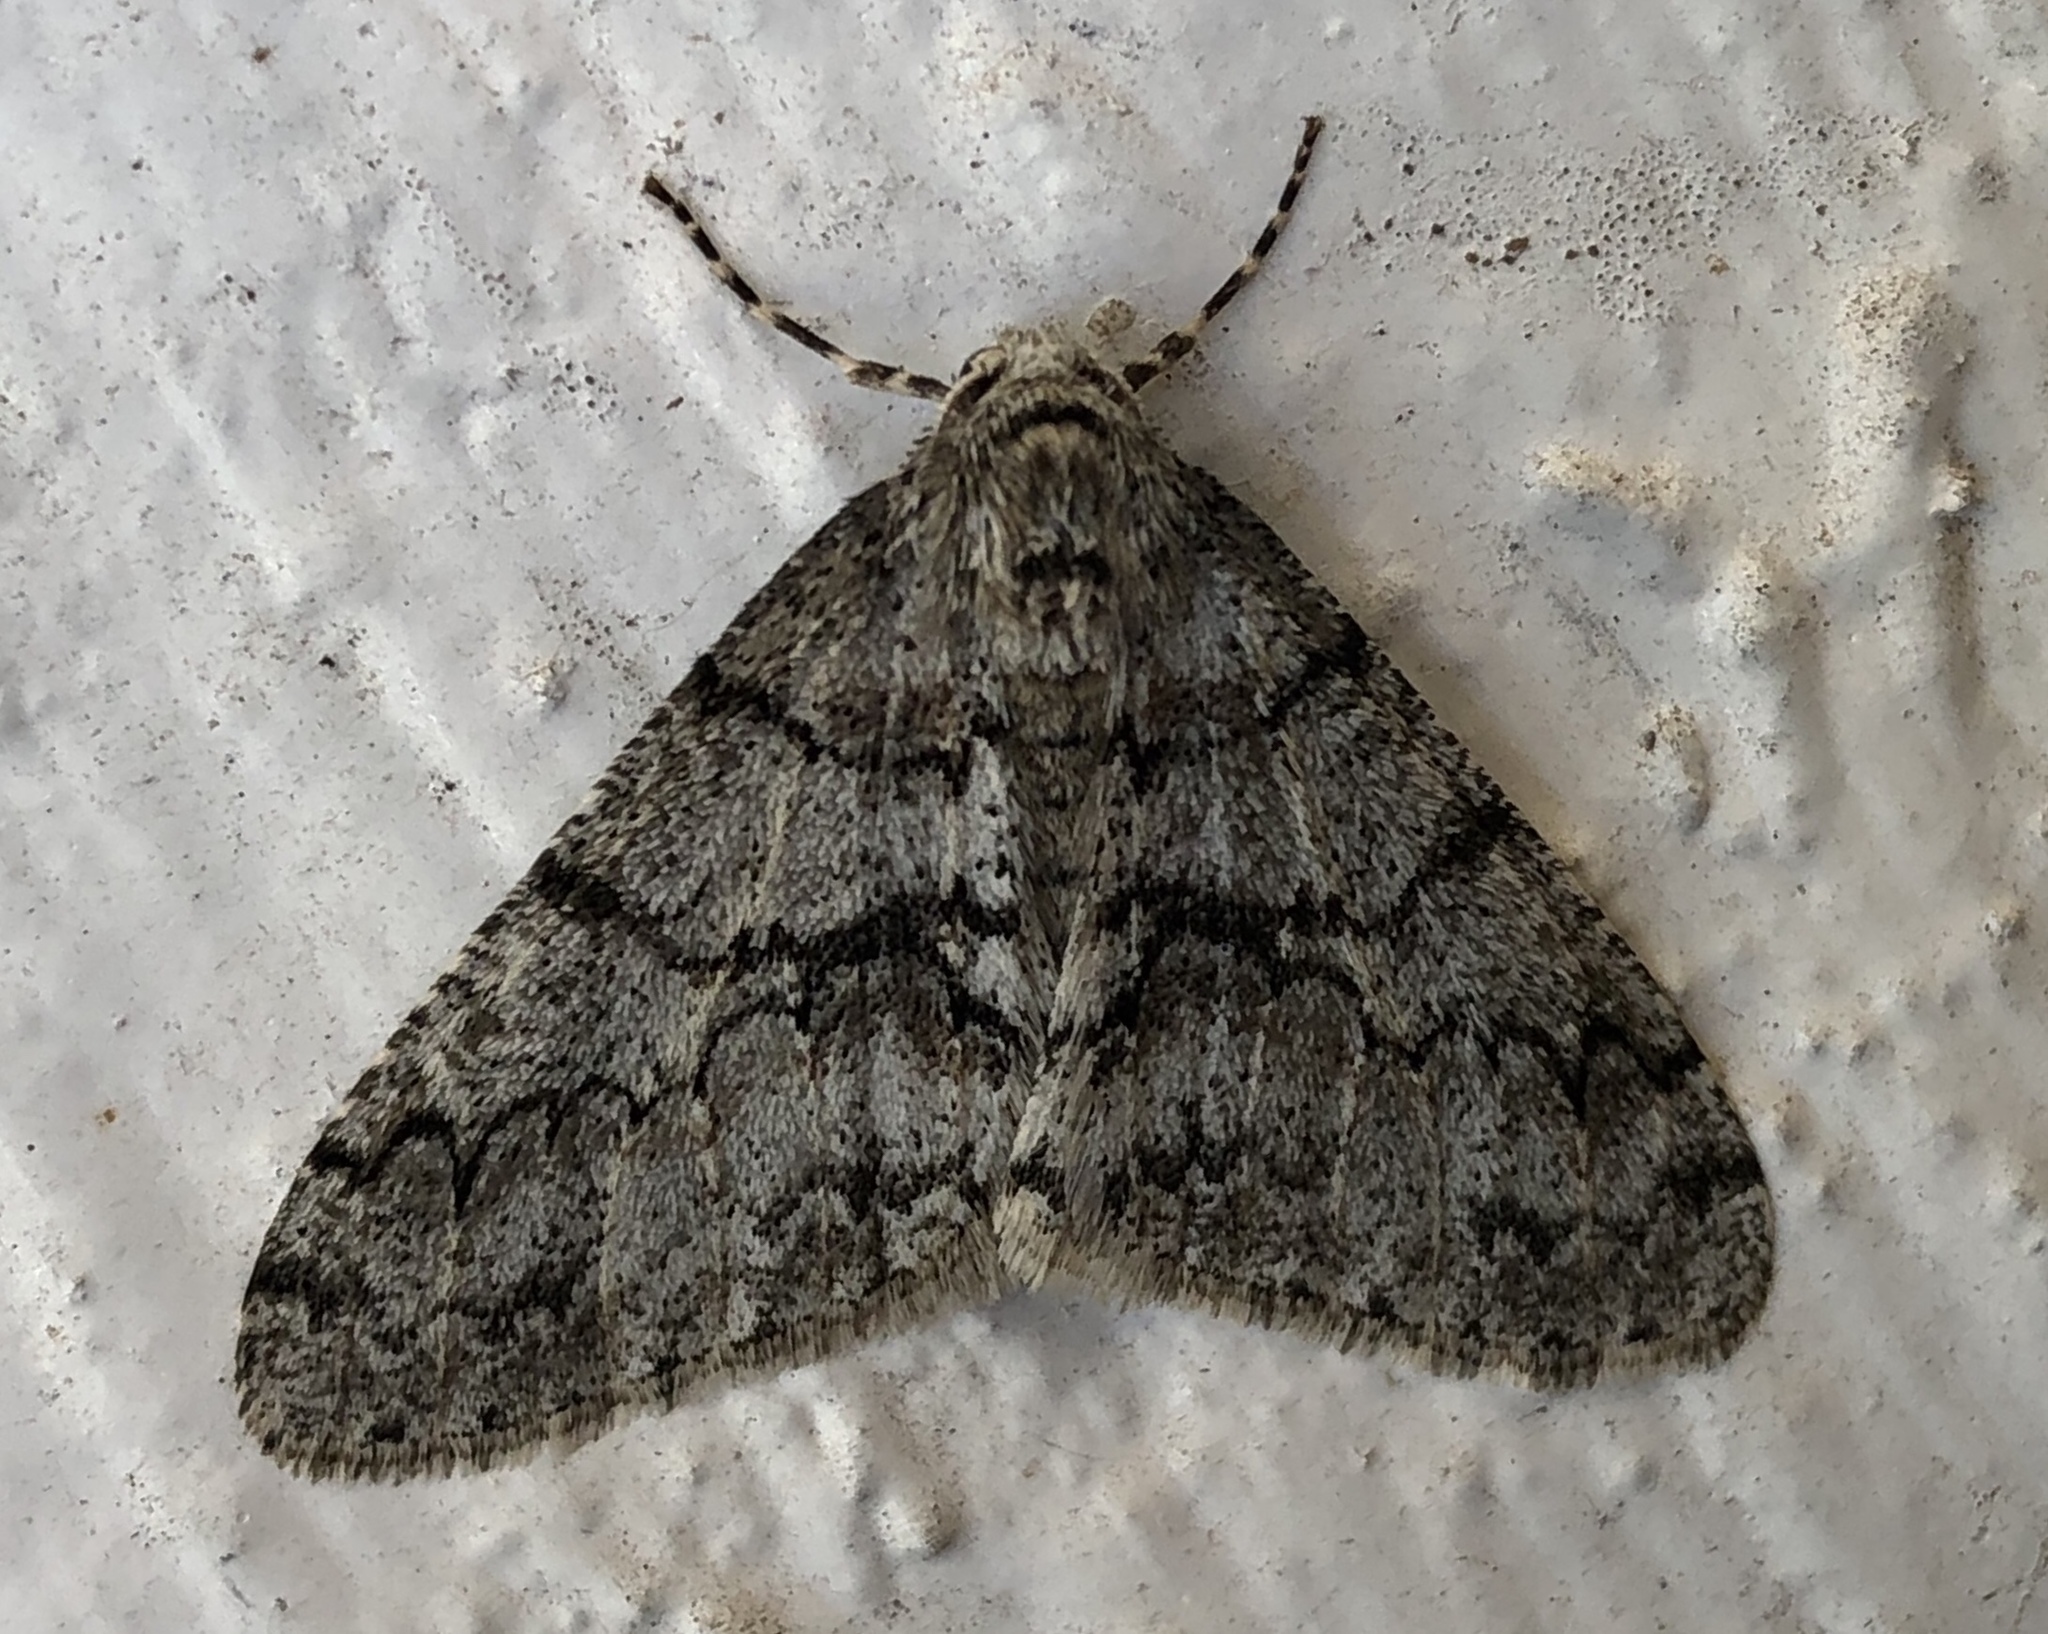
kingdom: Animalia
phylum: Arthropoda
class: Insecta
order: Lepidoptera
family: Geometridae
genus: Phigalia
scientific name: Phigalia denticulata
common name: Toothed phigalia
